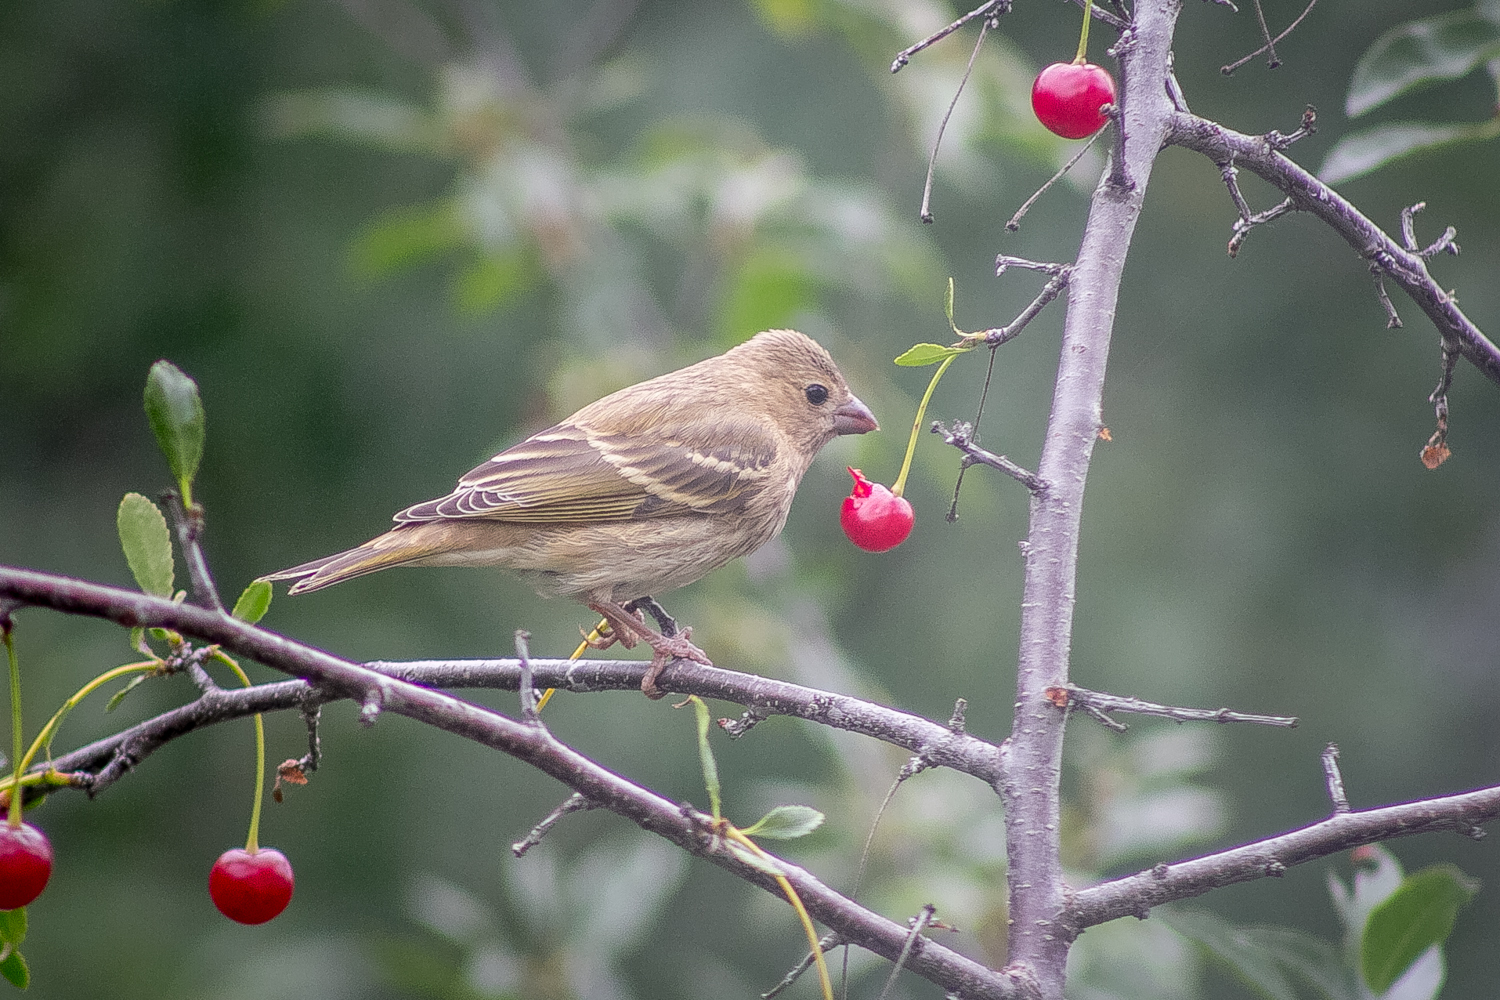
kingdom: Animalia
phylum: Chordata
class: Aves
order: Passeriformes
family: Fringillidae
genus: Carpodacus
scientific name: Carpodacus erythrinus
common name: Common rosefinch
